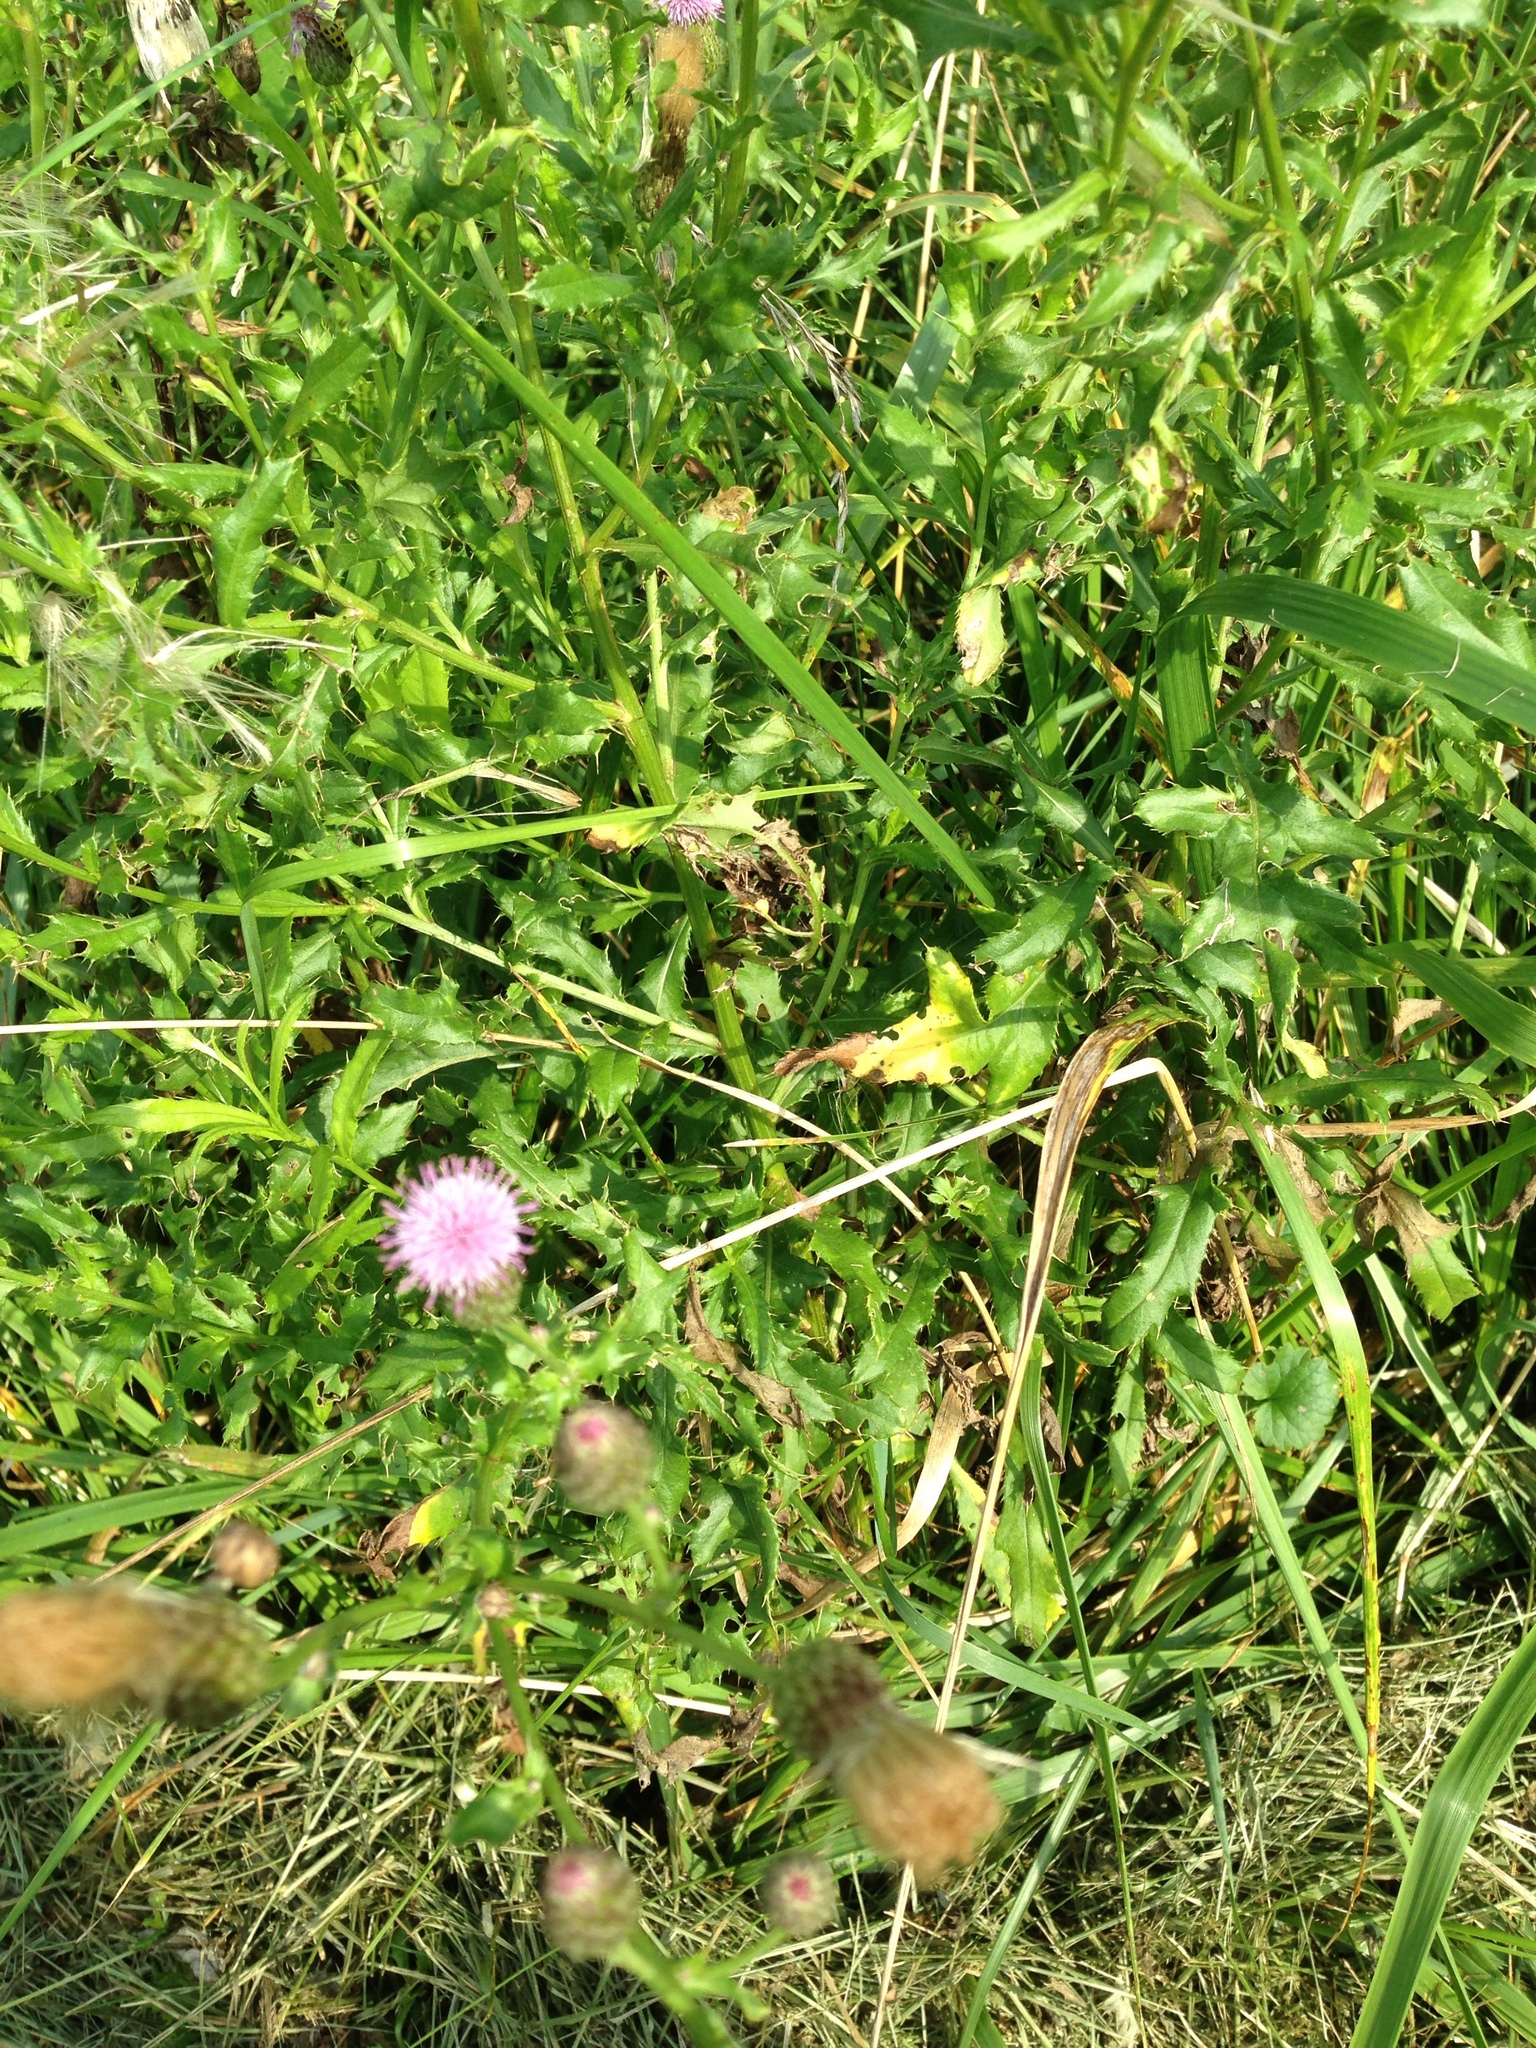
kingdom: Plantae
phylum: Tracheophyta
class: Magnoliopsida
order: Asterales
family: Asteraceae
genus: Cirsium
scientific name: Cirsium arvense
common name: Creeping thistle
